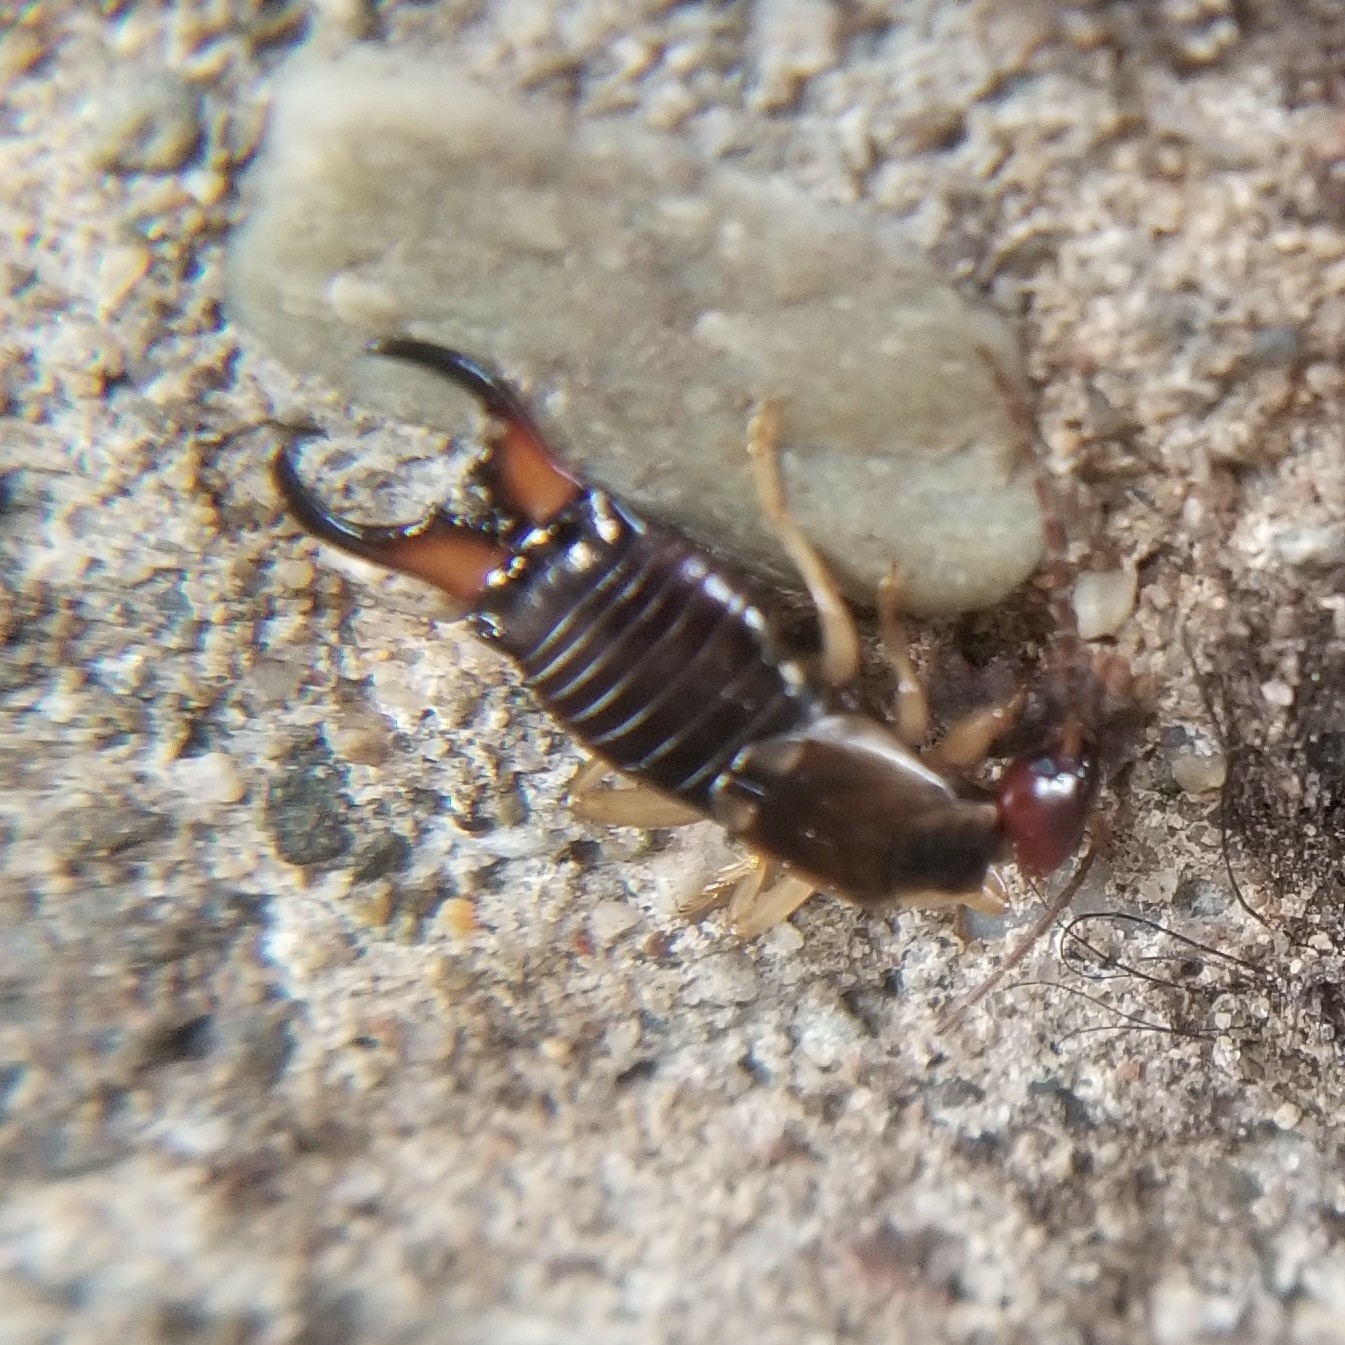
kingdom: Animalia
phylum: Arthropoda
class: Insecta
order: Dermaptera
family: Forficulidae
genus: Forficula
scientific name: Forficula dentata
